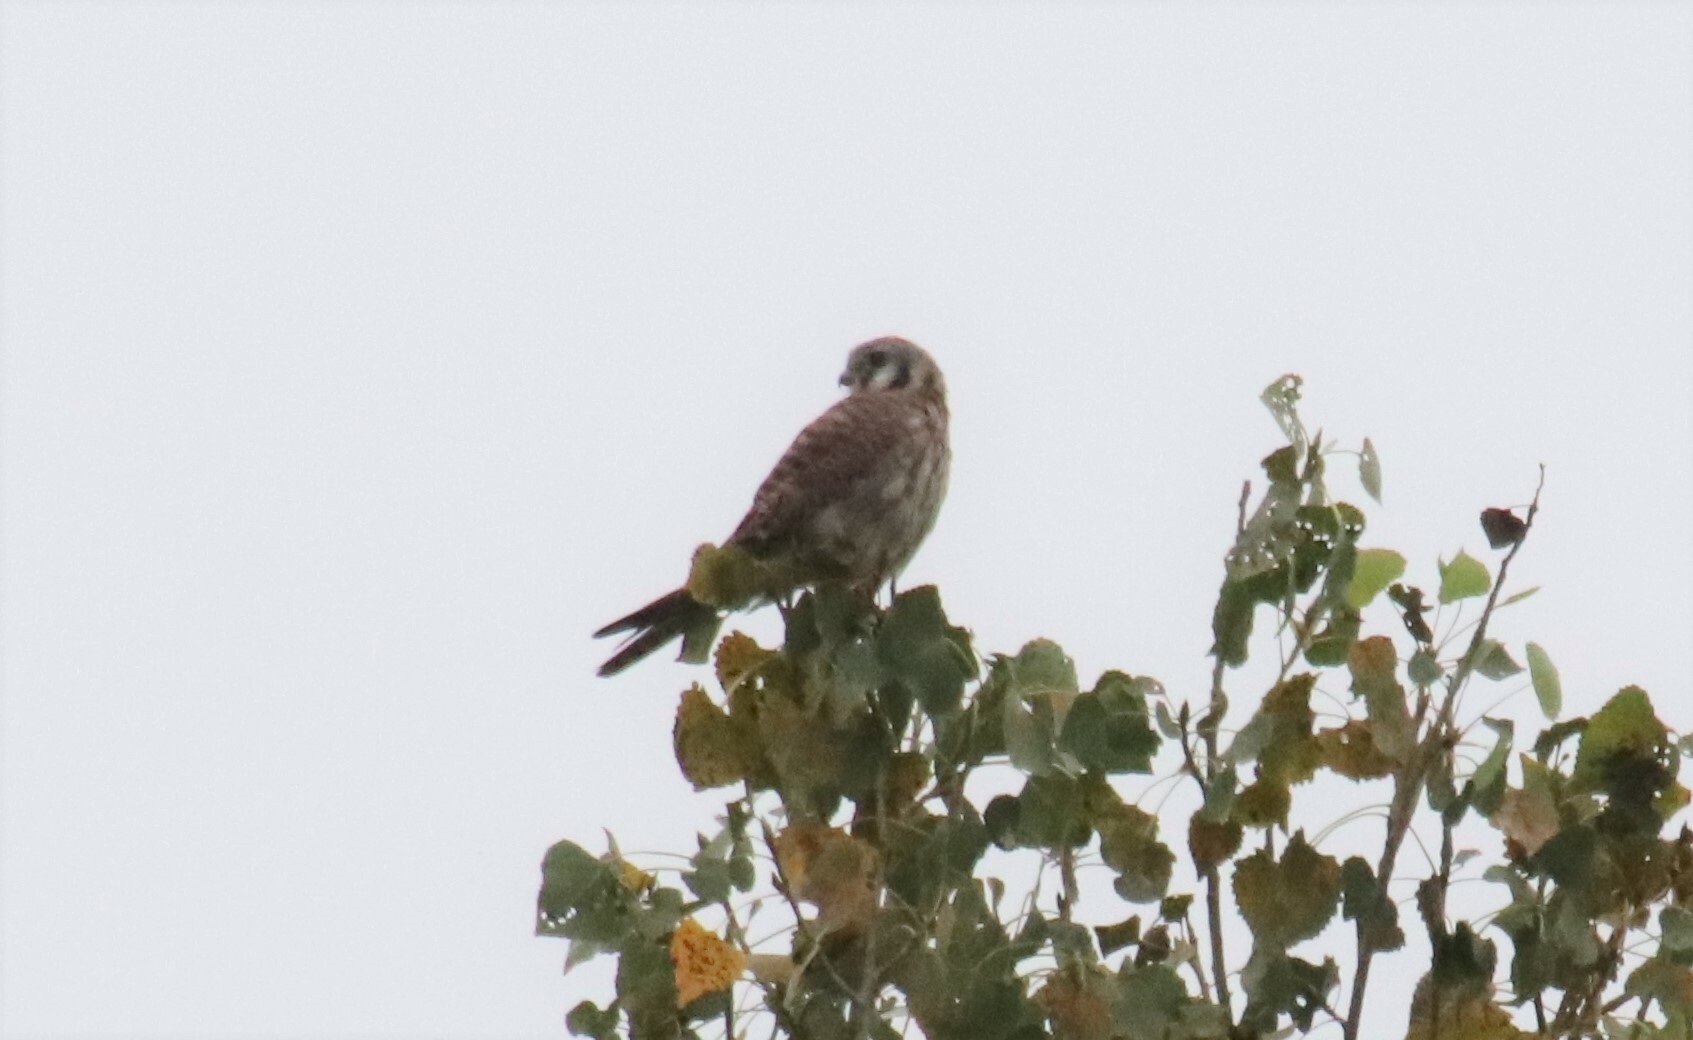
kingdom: Animalia
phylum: Chordata
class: Aves
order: Falconiformes
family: Falconidae
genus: Falco
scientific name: Falco sparverius
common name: American kestrel
